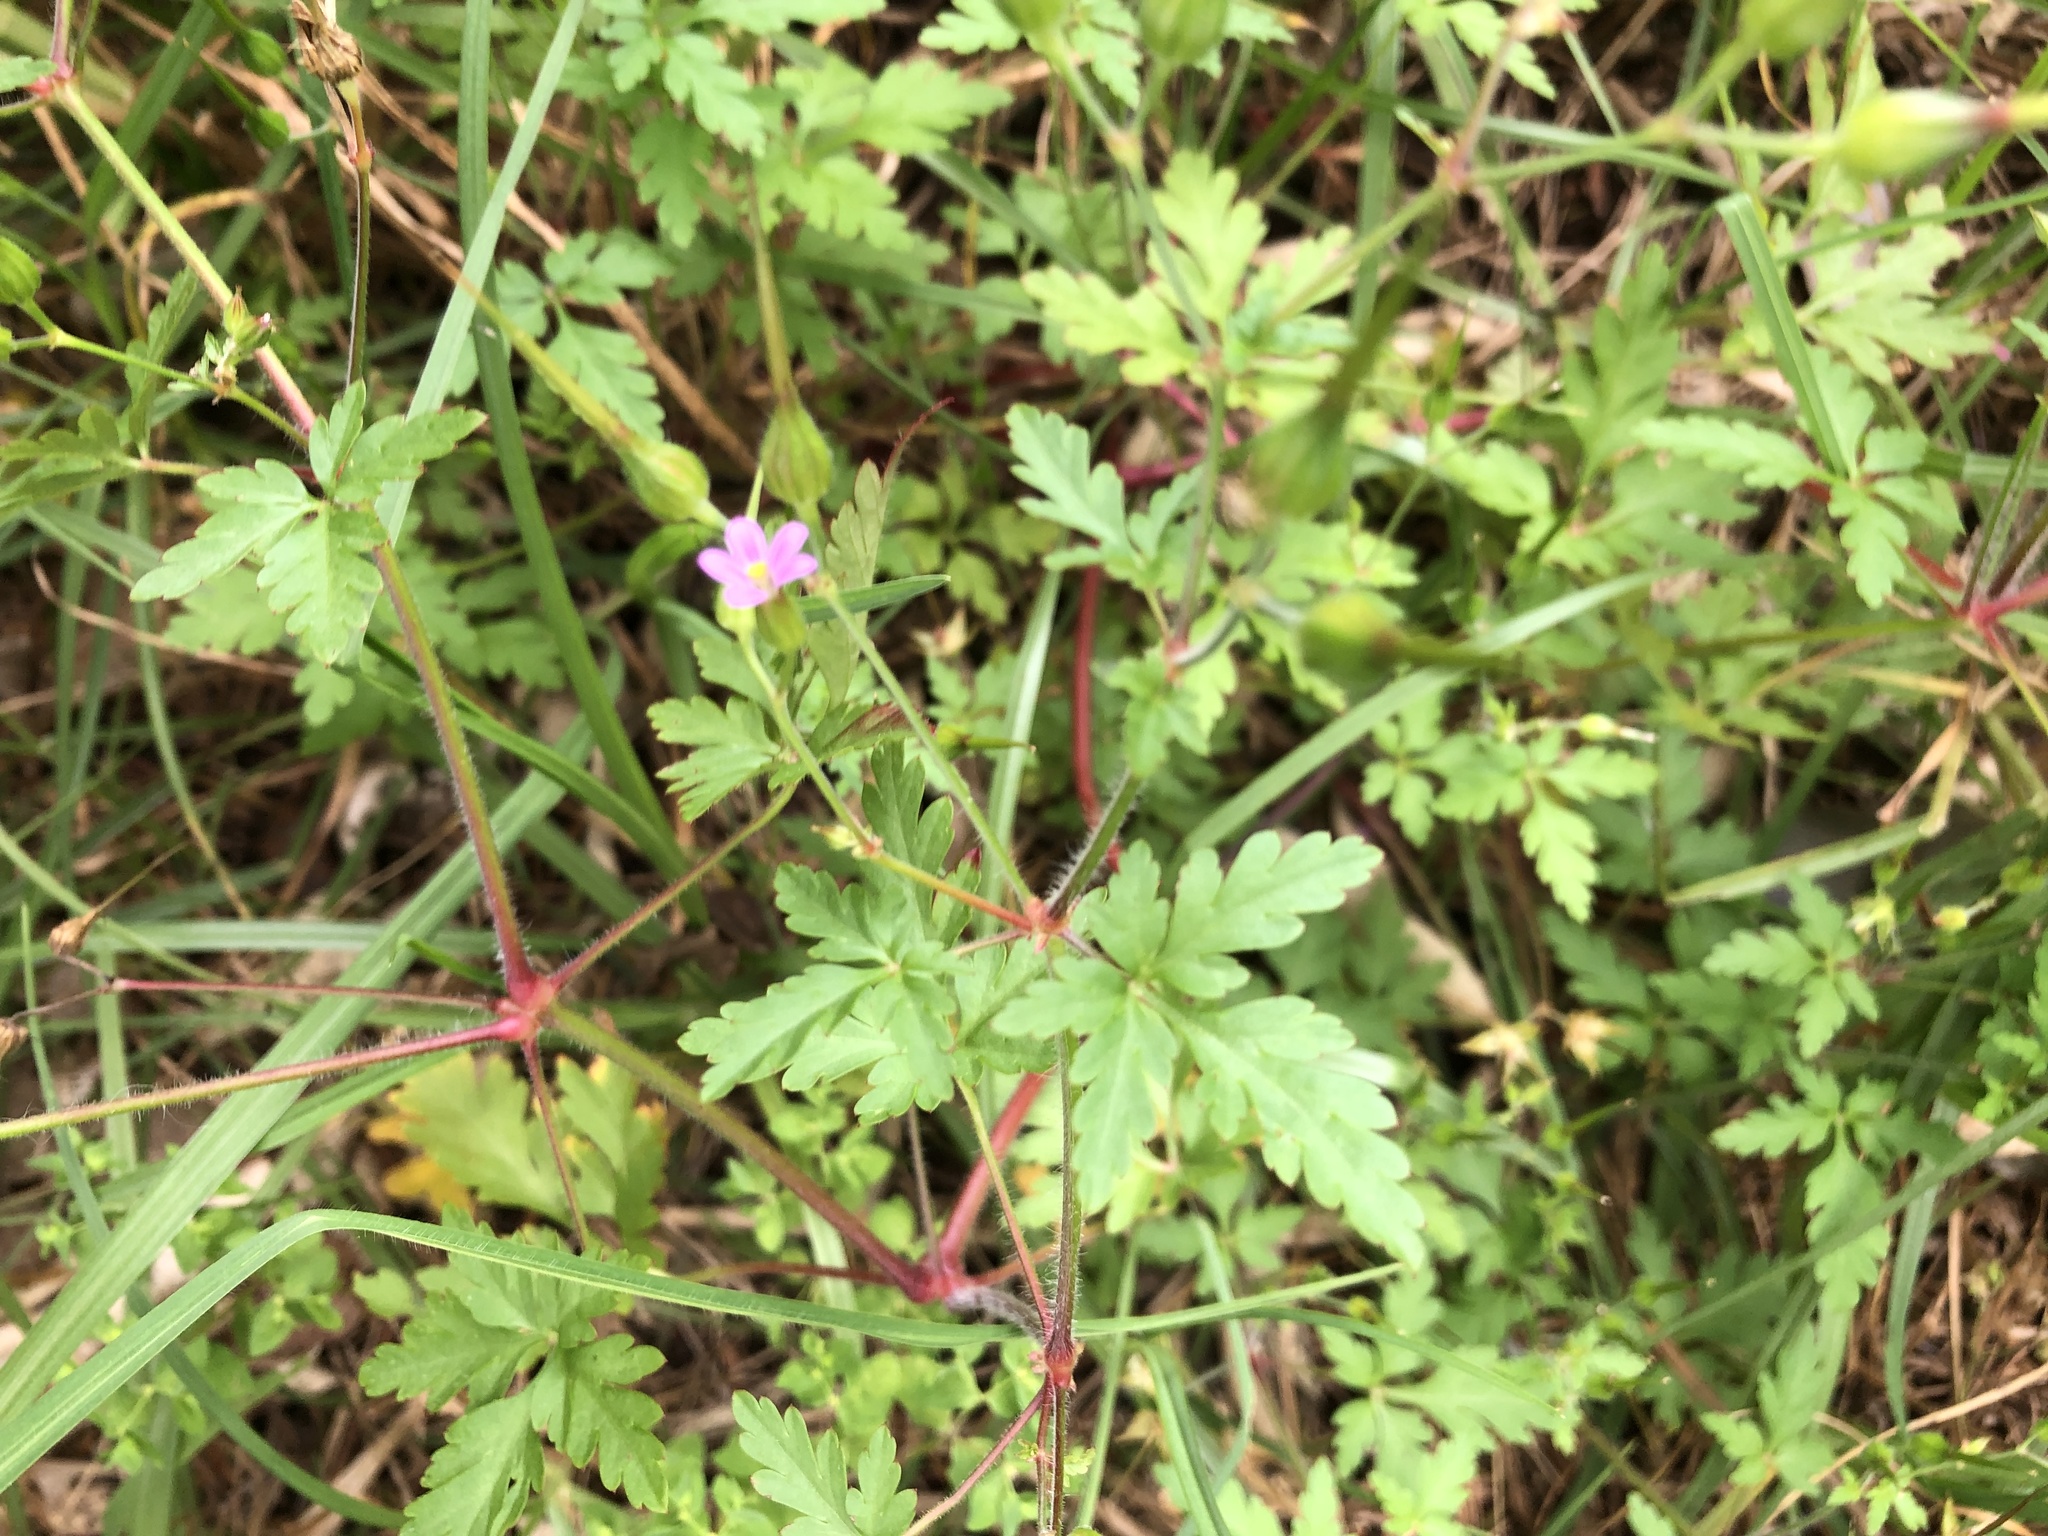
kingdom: Plantae
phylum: Tracheophyta
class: Magnoliopsida
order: Geraniales
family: Geraniaceae
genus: Geranium
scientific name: Geranium purpureum
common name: Little-robin
